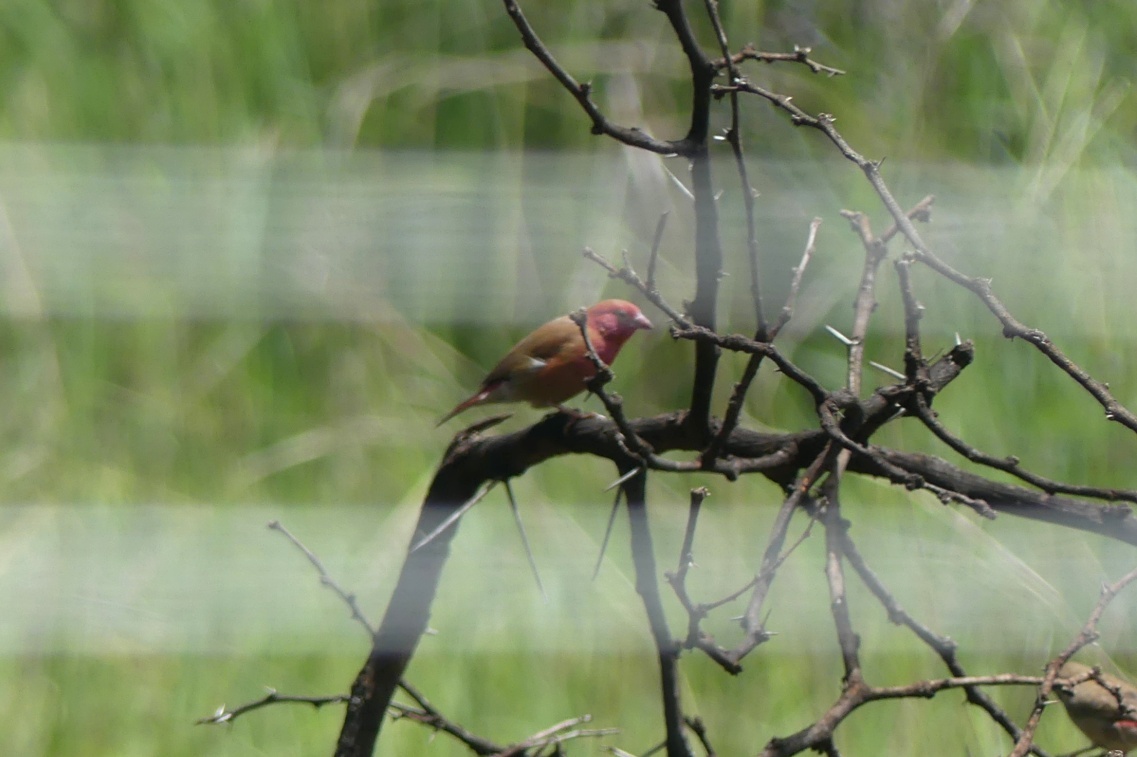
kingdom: Animalia
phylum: Chordata
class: Aves
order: Passeriformes
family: Estrildidae
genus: Lagonosticta
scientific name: Lagonosticta senegala
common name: Red-billed firefinch
